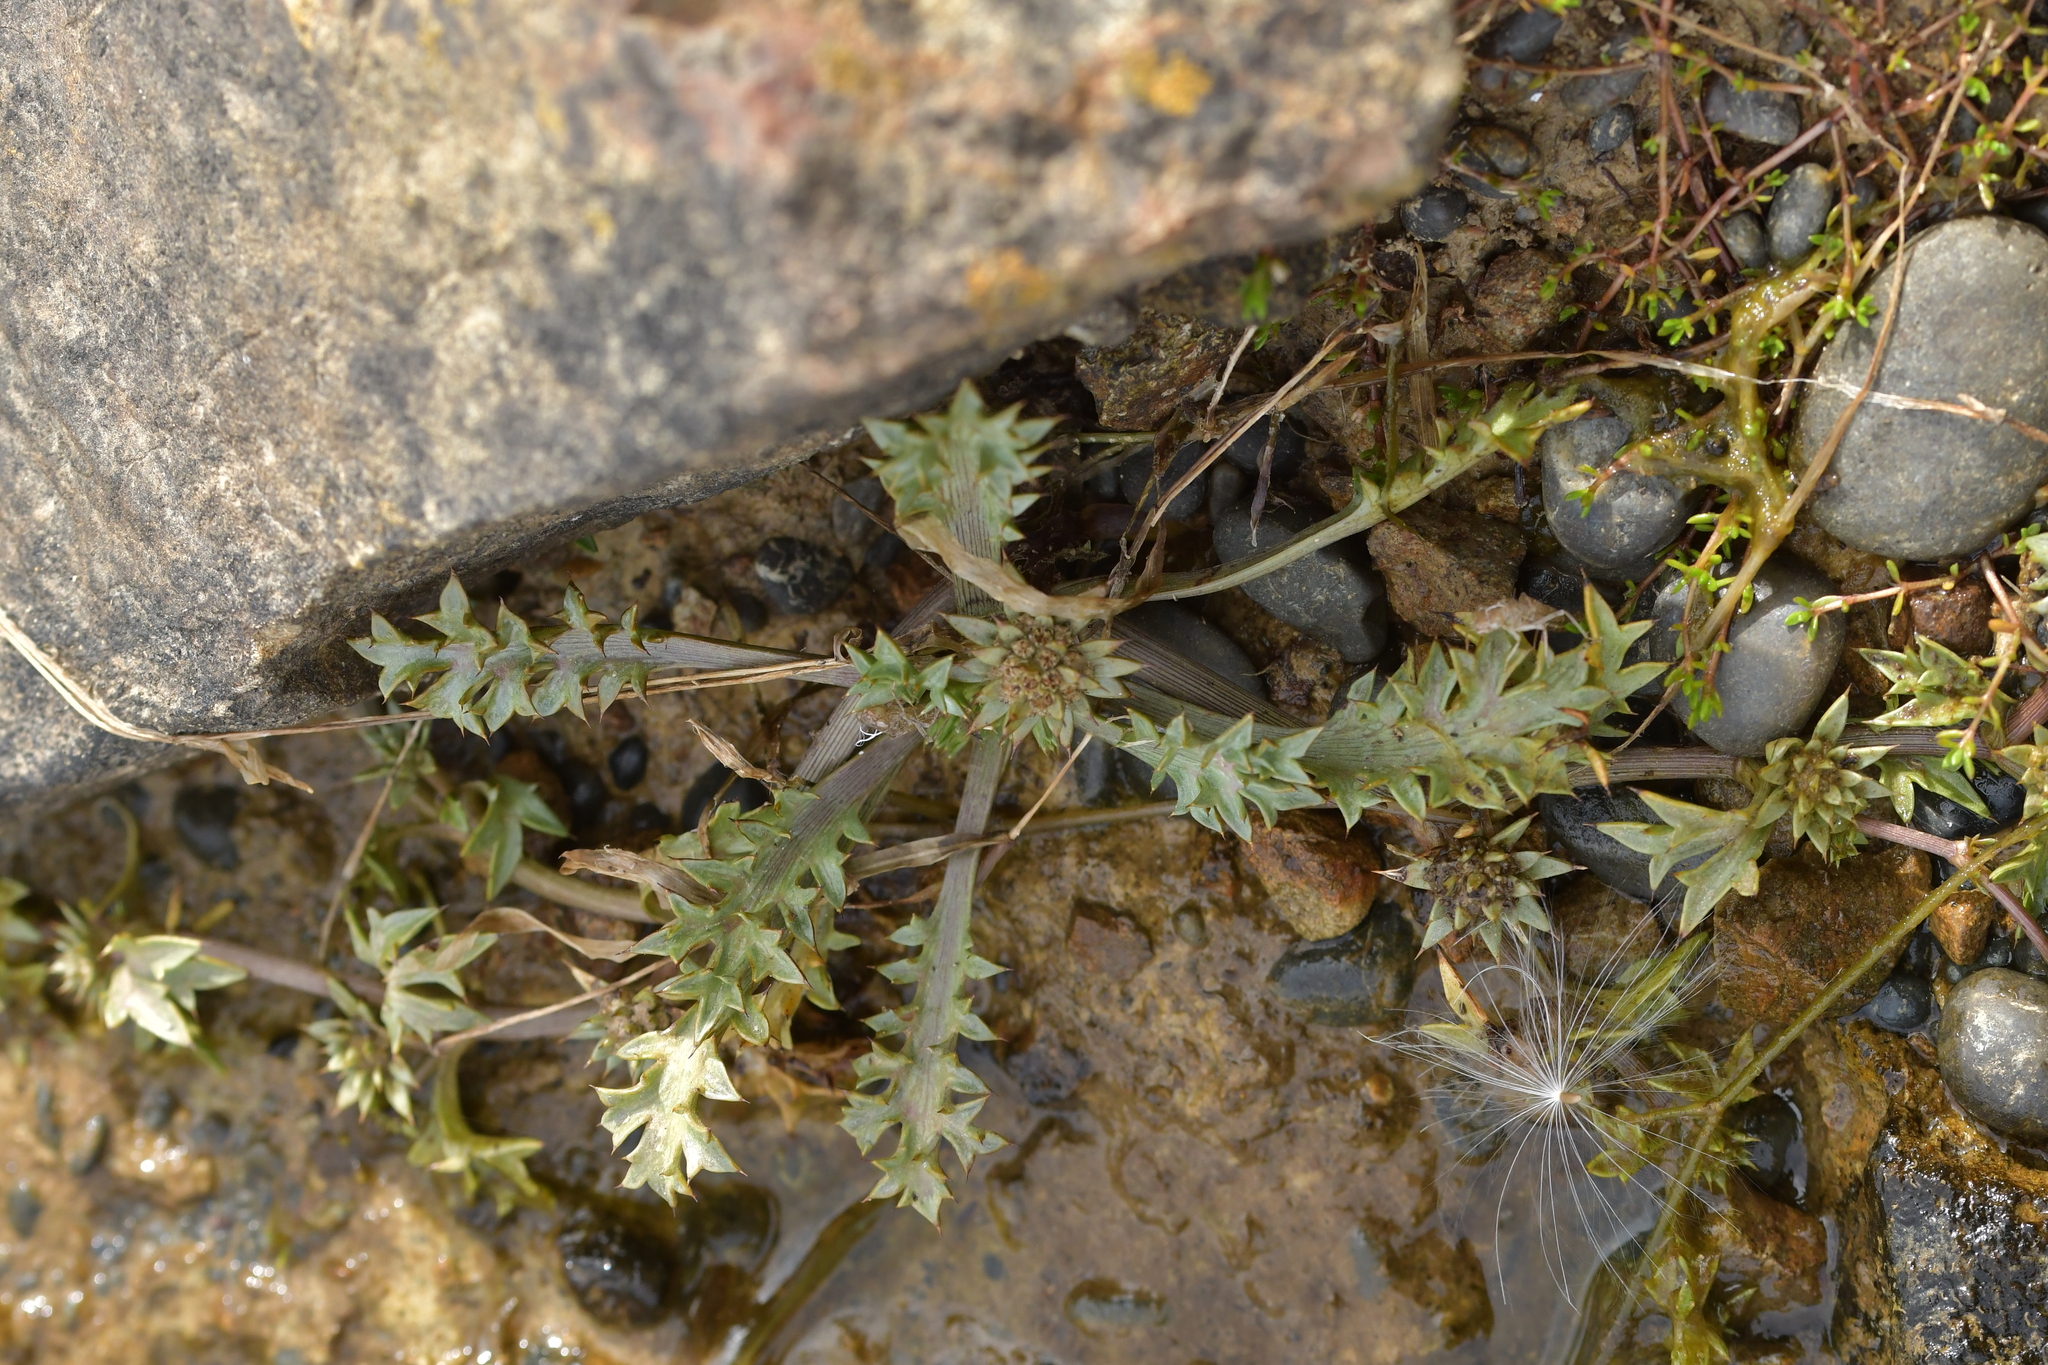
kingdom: Plantae
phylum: Tracheophyta
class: Magnoliopsida
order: Apiales
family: Apiaceae
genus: Eryngium
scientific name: Eryngium vesiculosum
